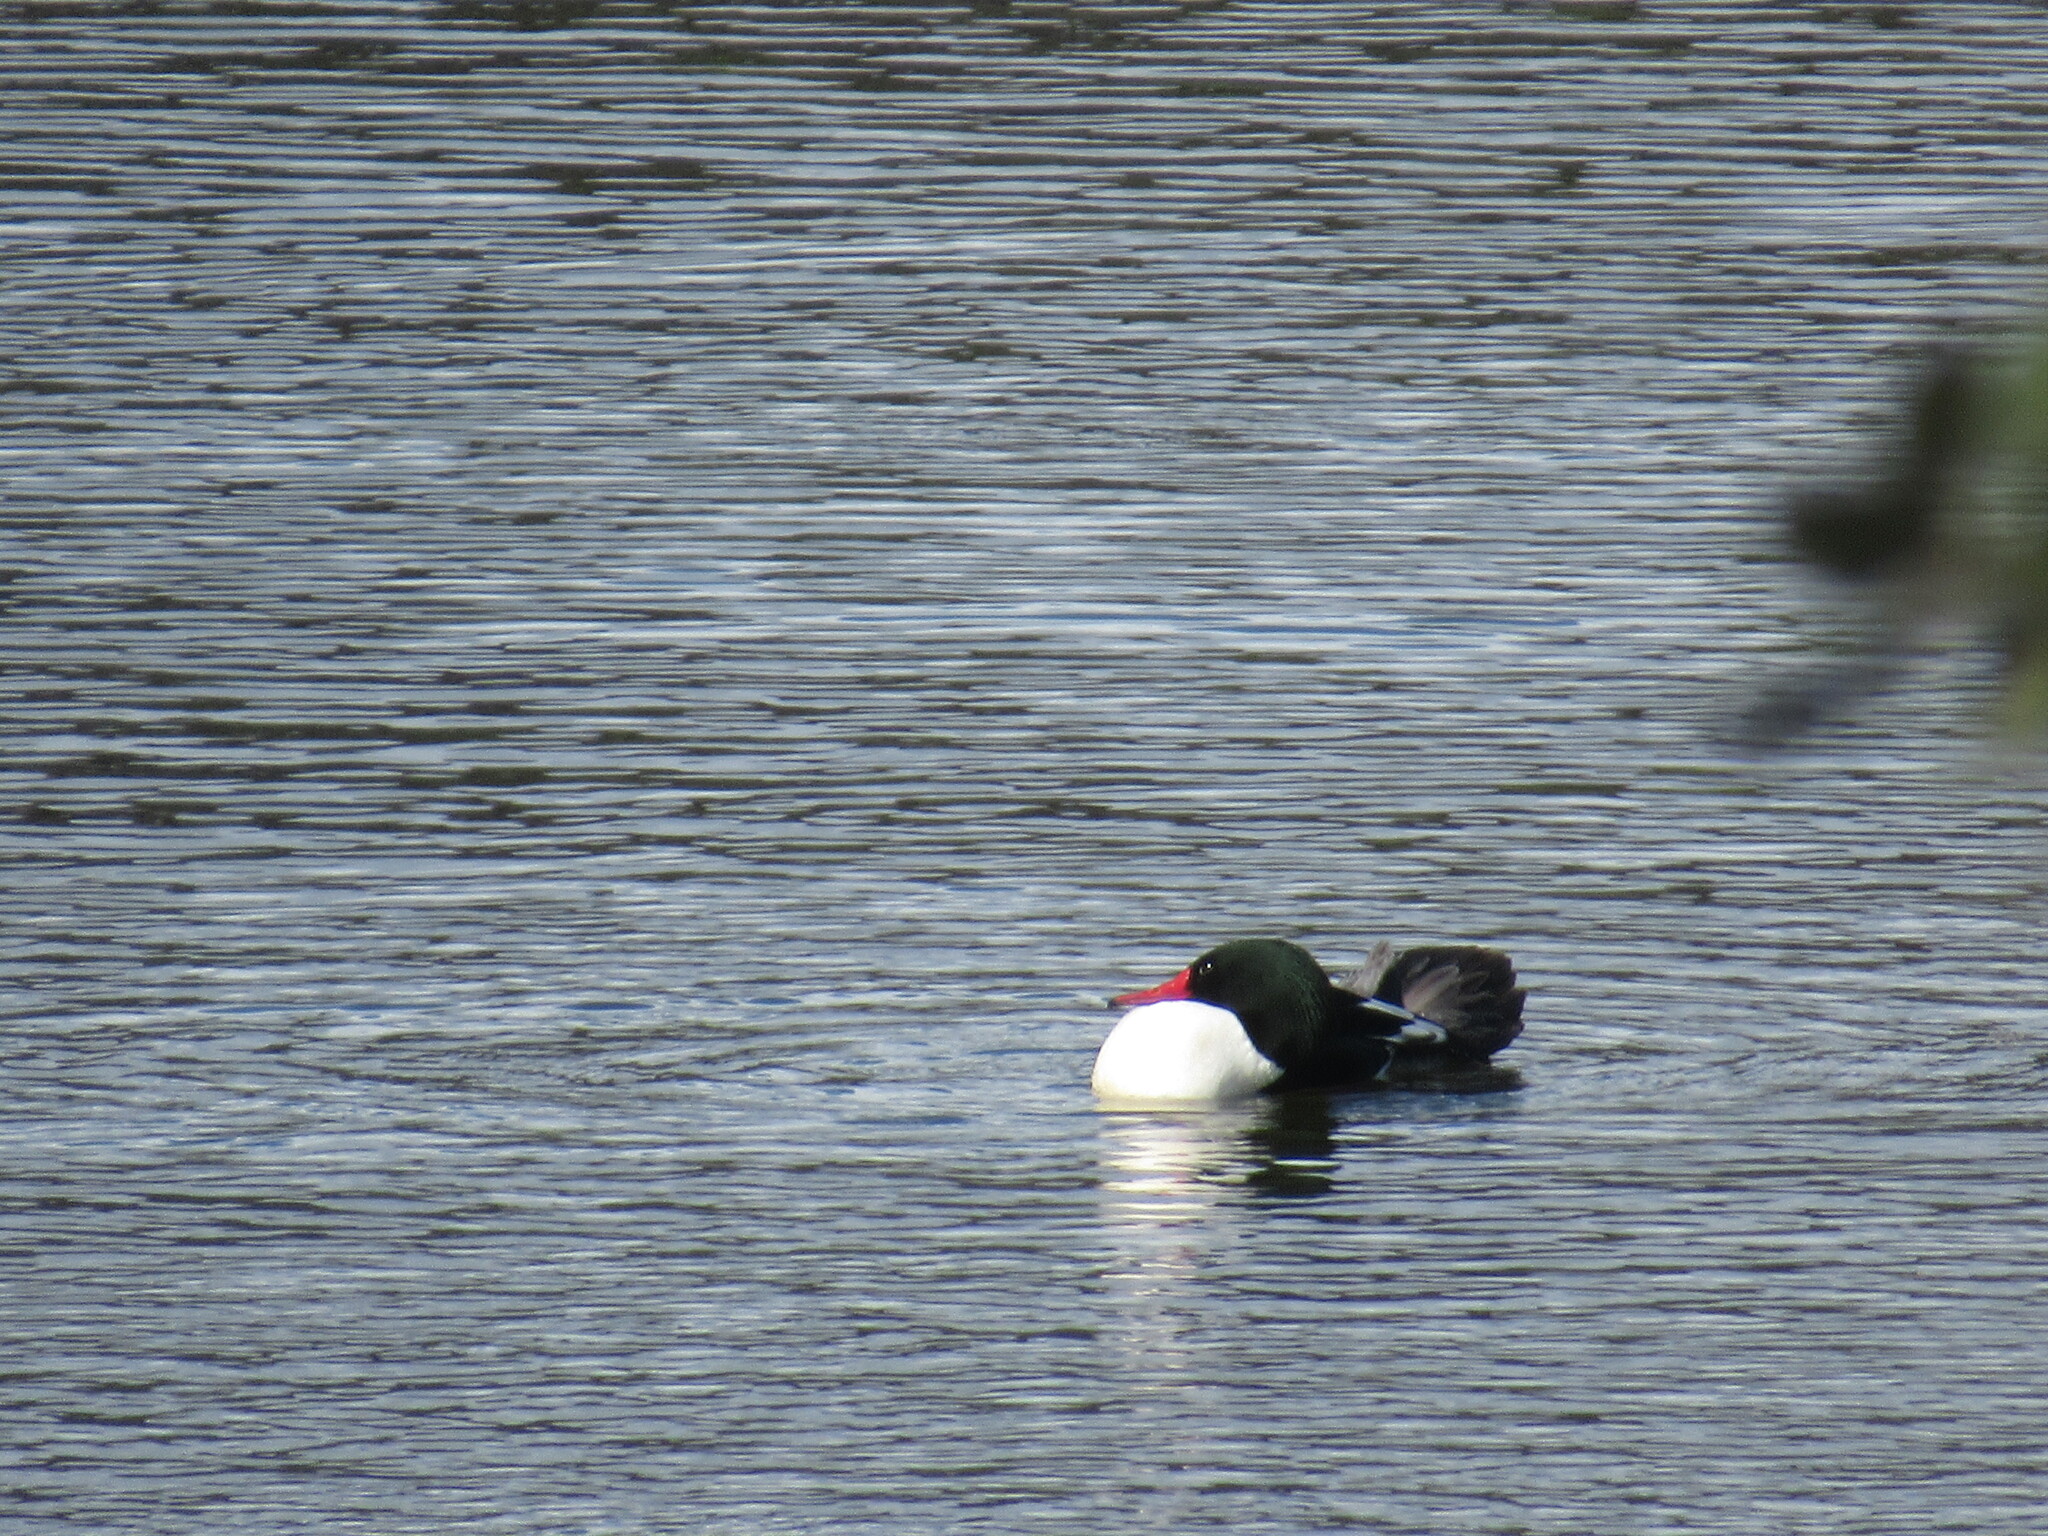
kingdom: Animalia
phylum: Chordata
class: Aves
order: Anseriformes
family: Anatidae
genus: Mergus
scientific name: Mergus merganser
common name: Common merganser
